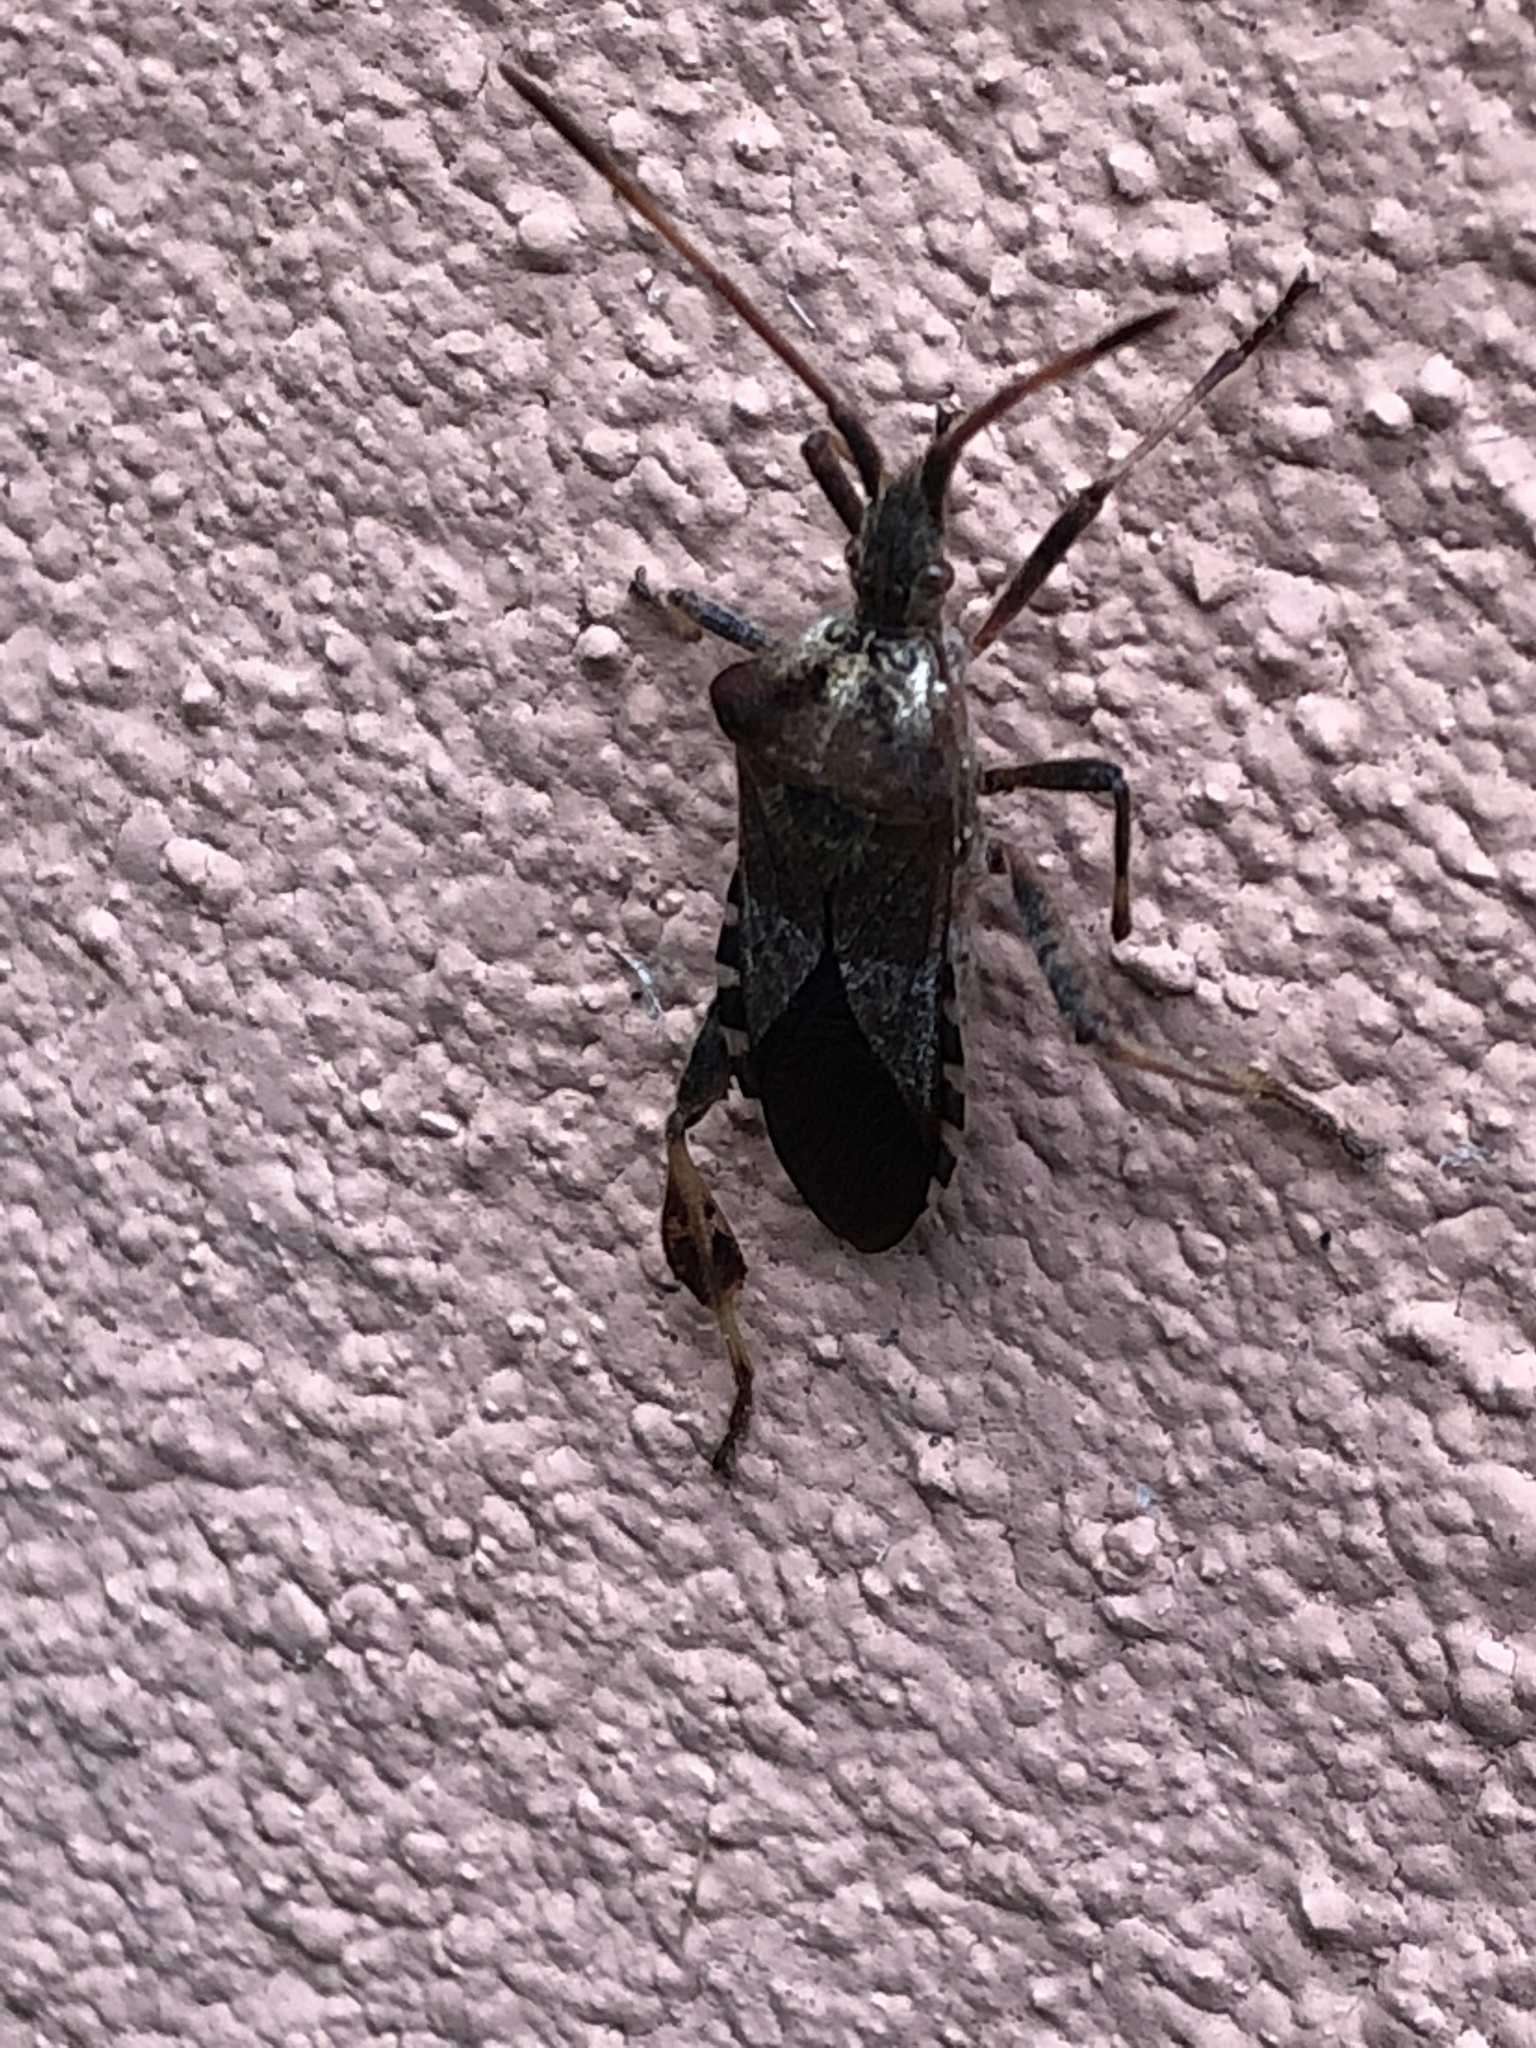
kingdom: Animalia
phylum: Arthropoda
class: Insecta
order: Hemiptera
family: Coreidae
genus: Leptoglossus
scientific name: Leptoglossus occidentalis
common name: Western conifer-seed bug
